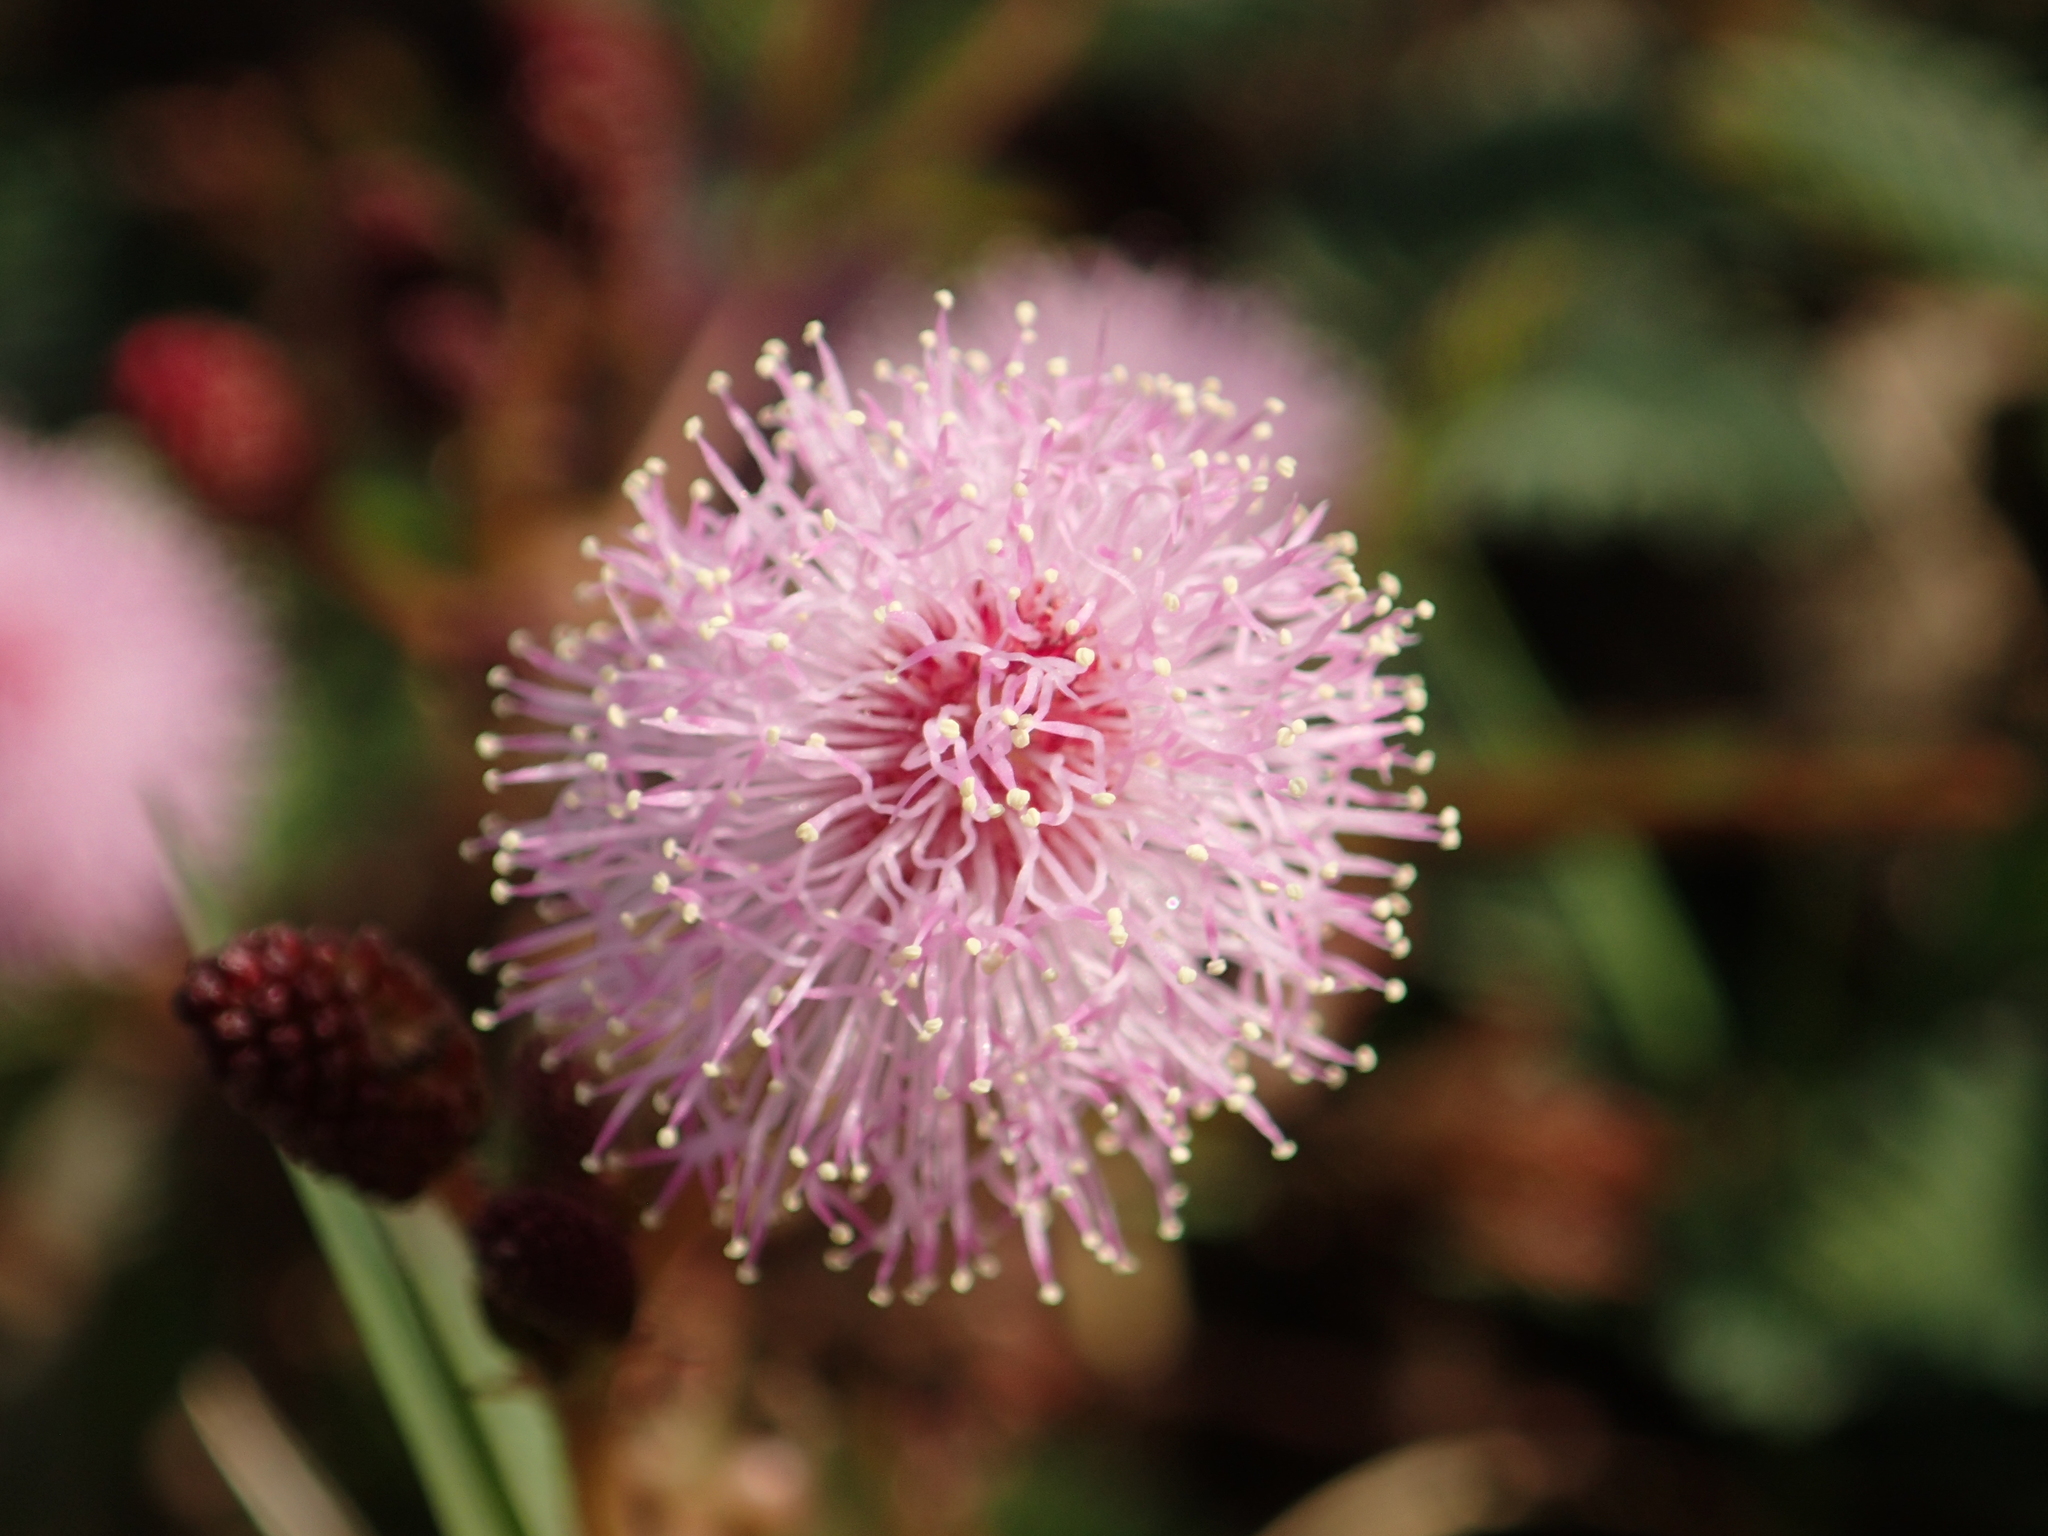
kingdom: Plantae
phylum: Tracheophyta
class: Magnoliopsida
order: Fabales
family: Fabaceae
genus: Mimosa
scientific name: Mimosa pudica
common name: Sensitive plant
